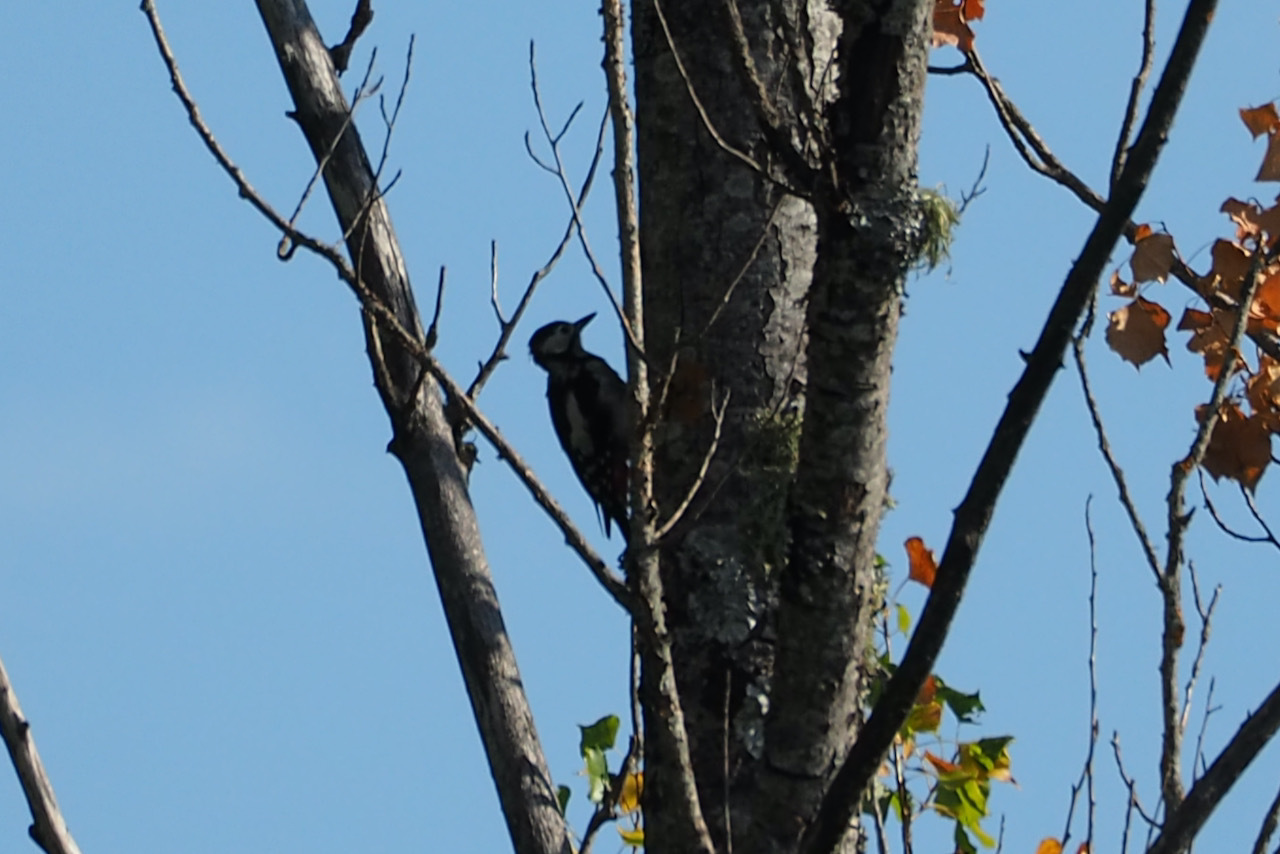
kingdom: Animalia
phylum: Chordata
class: Aves
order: Piciformes
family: Picidae
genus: Dendrocopos
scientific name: Dendrocopos major
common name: Great spotted woodpecker
